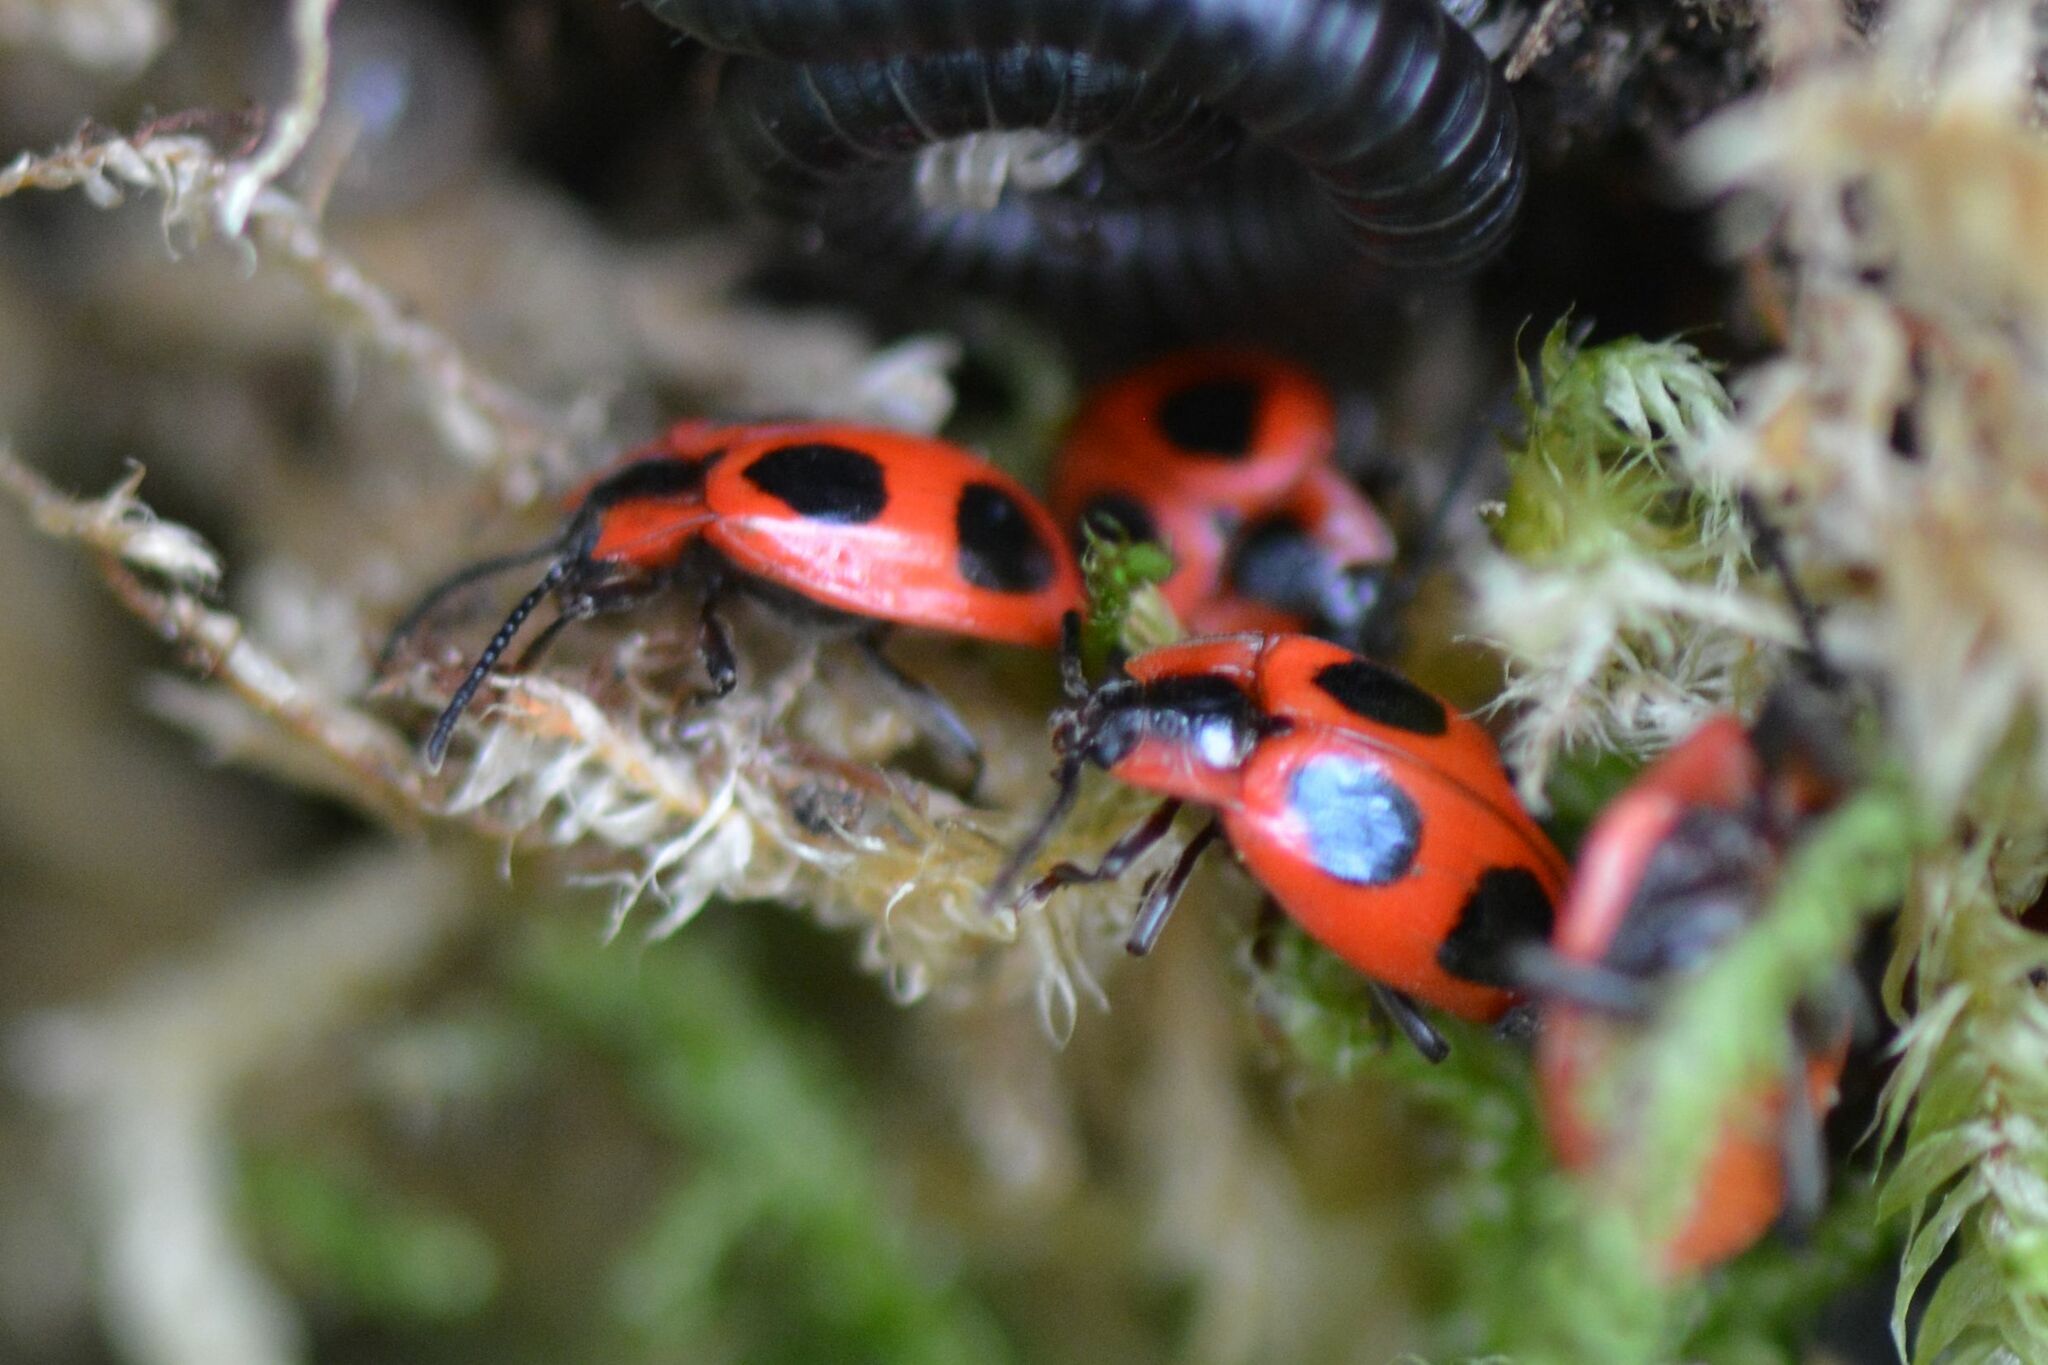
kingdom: Animalia
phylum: Arthropoda
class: Insecta
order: Coleoptera
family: Endomychidae
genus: Endomychus
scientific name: Endomychus coccineus
